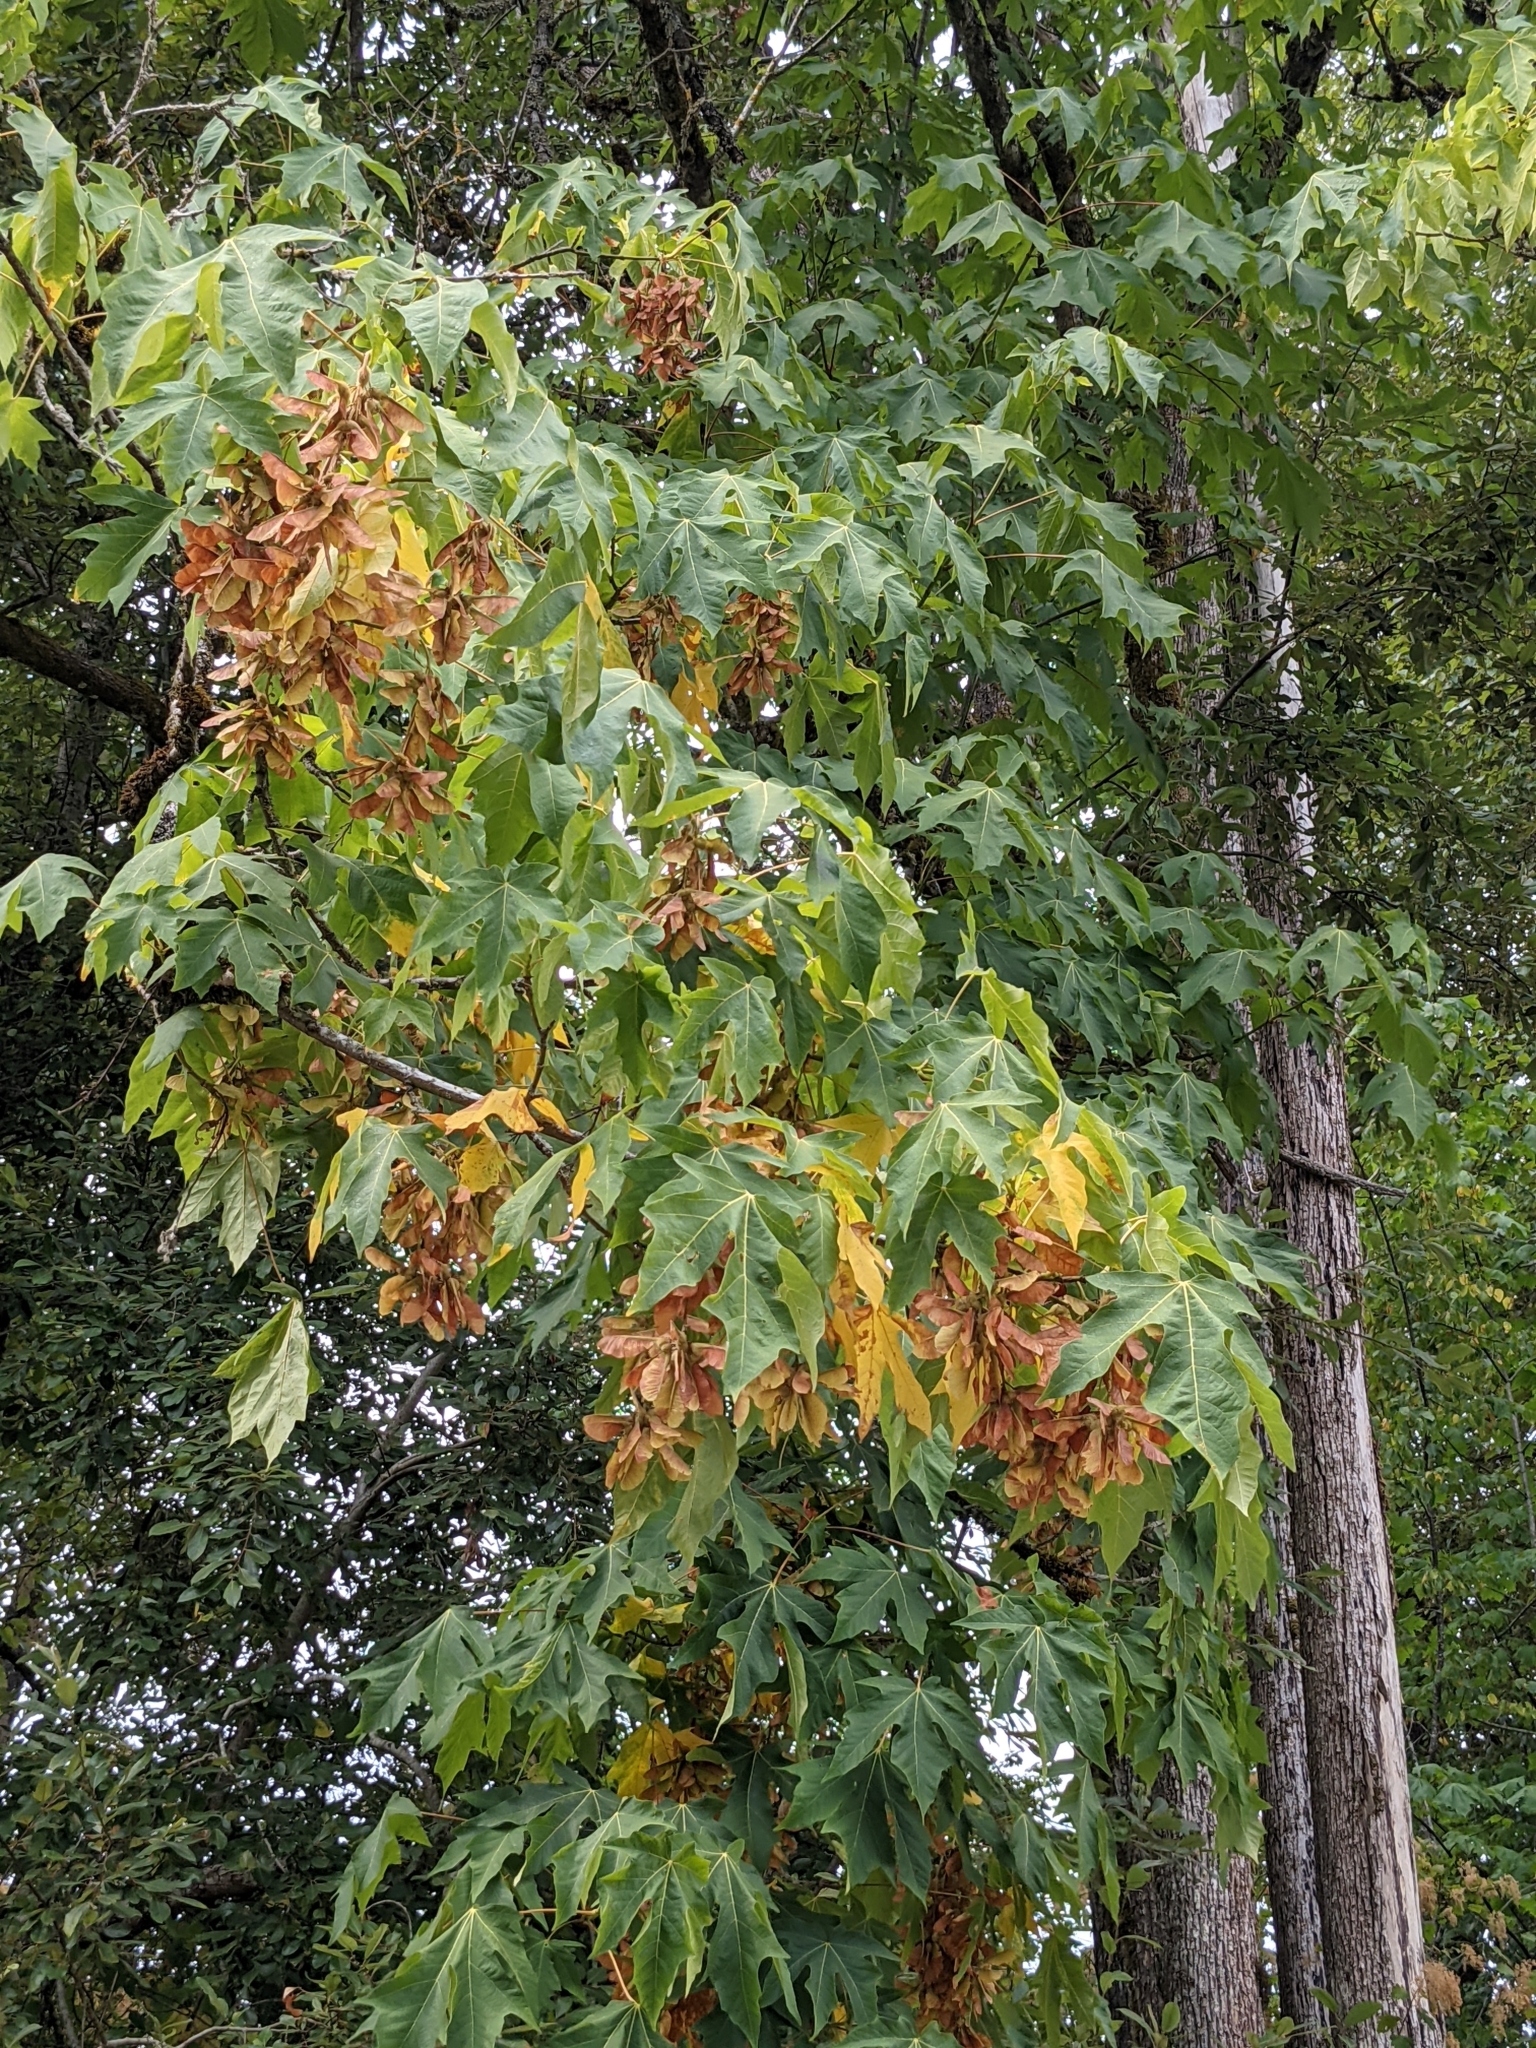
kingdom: Plantae
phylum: Tracheophyta
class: Magnoliopsida
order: Sapindales
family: Sapindaceae
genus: Acer
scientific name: Acer macrophyllum
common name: Oregon maple
